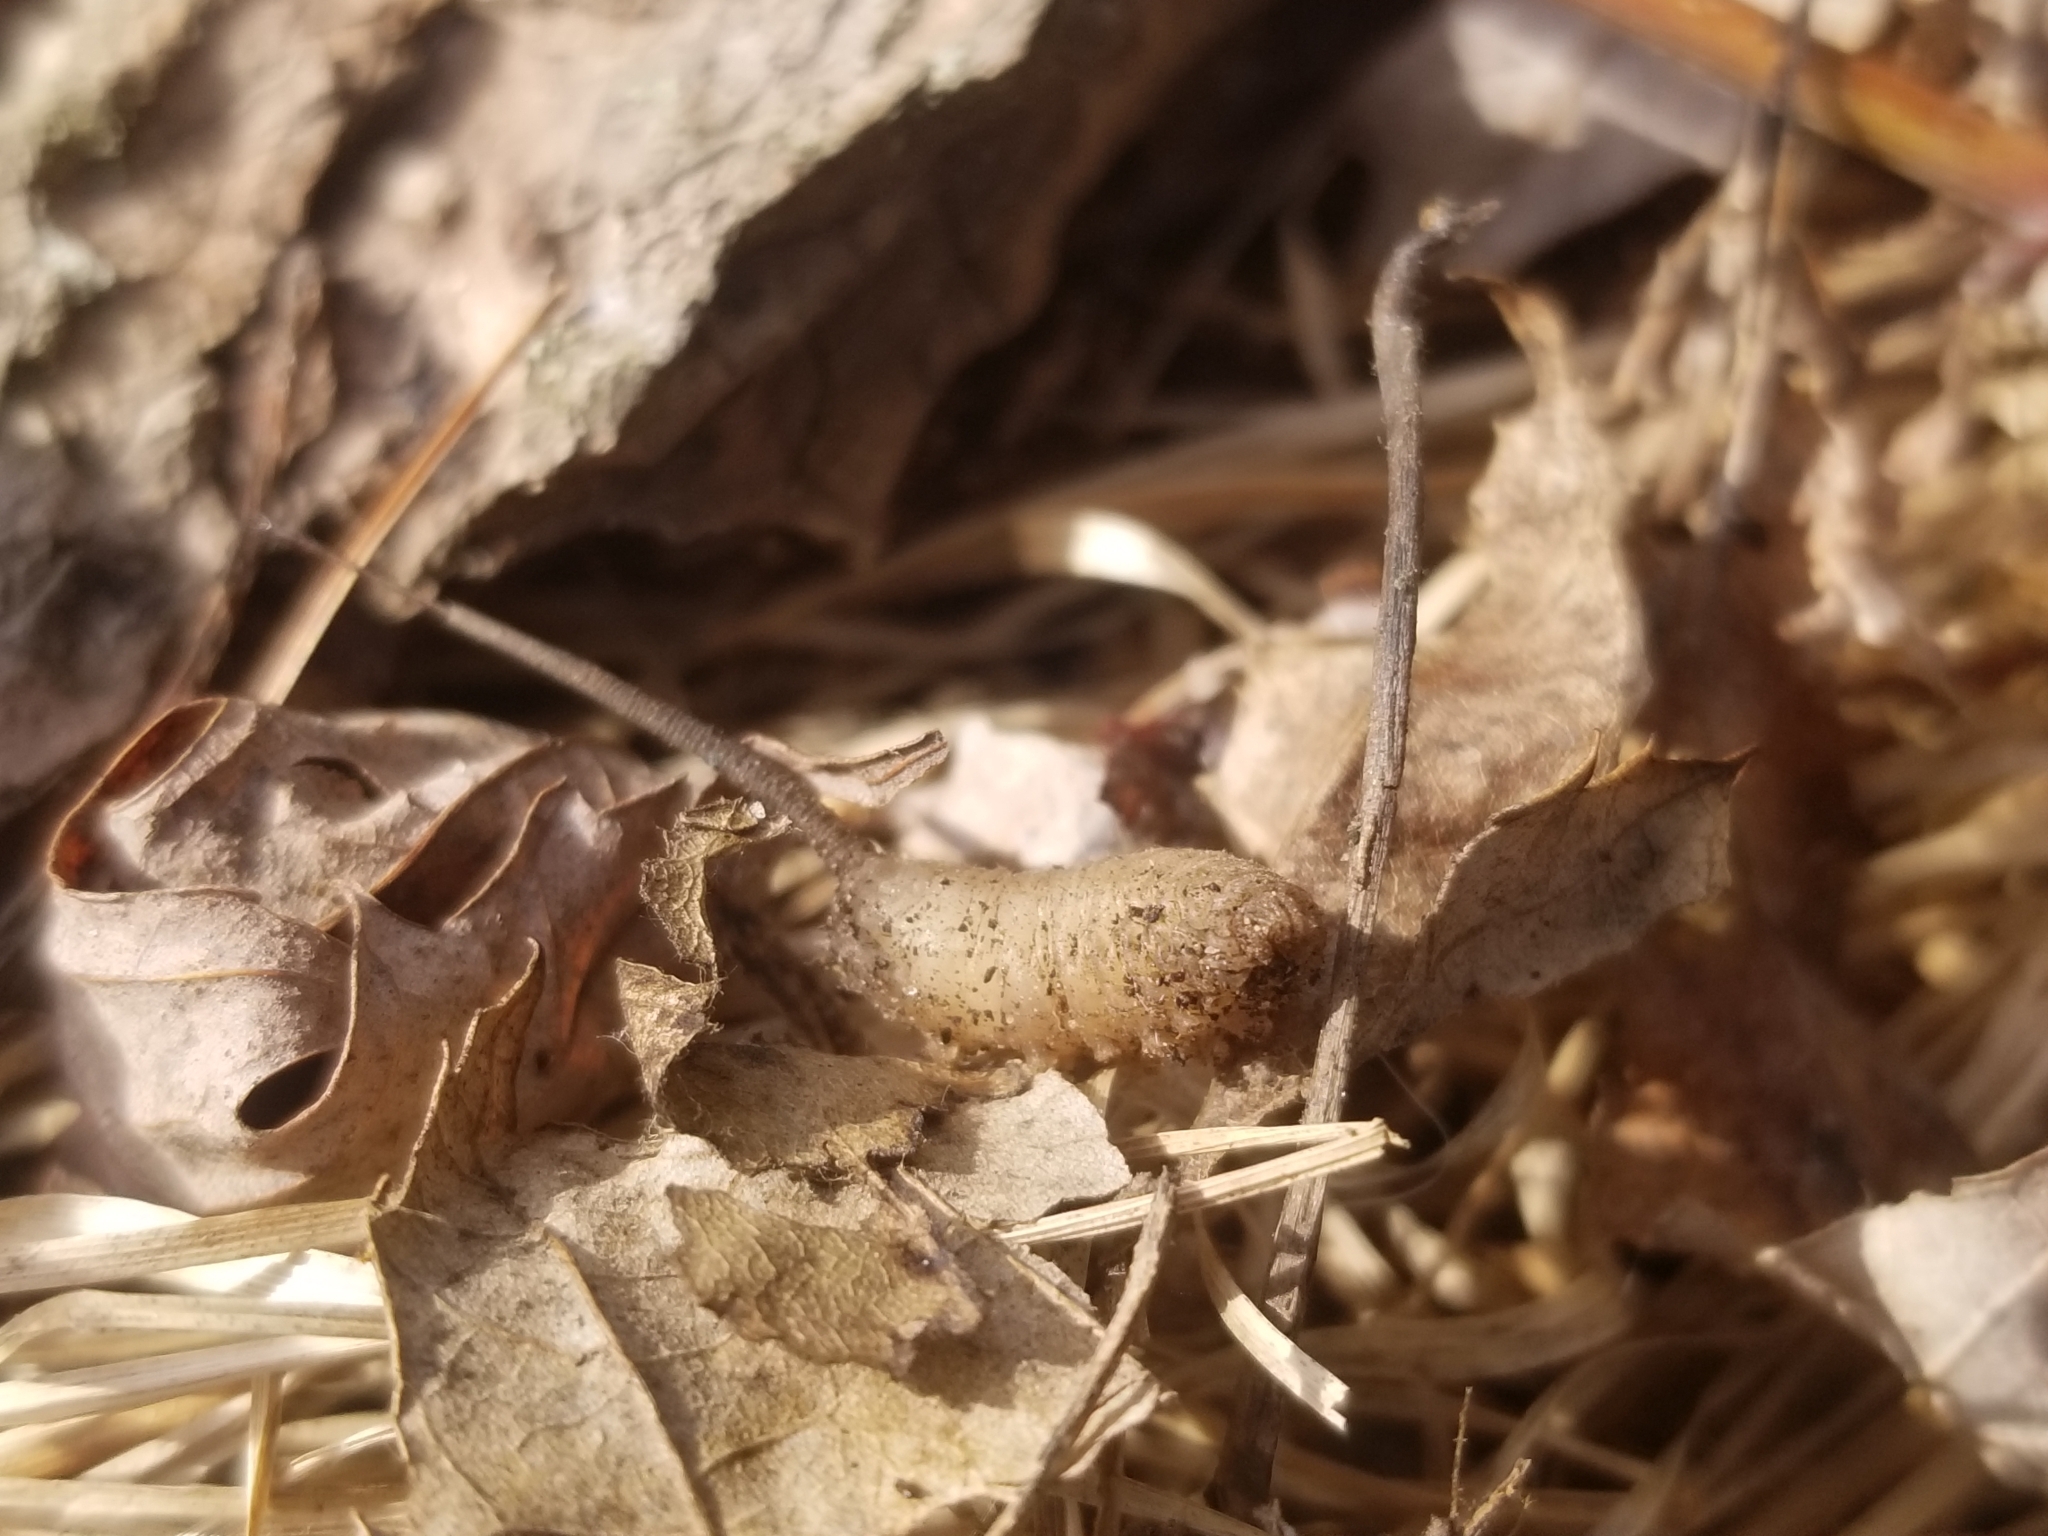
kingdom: Animalia
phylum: Arthropoda
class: Insecta
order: Diptera
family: Syrphidae
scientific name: Syrphidae
